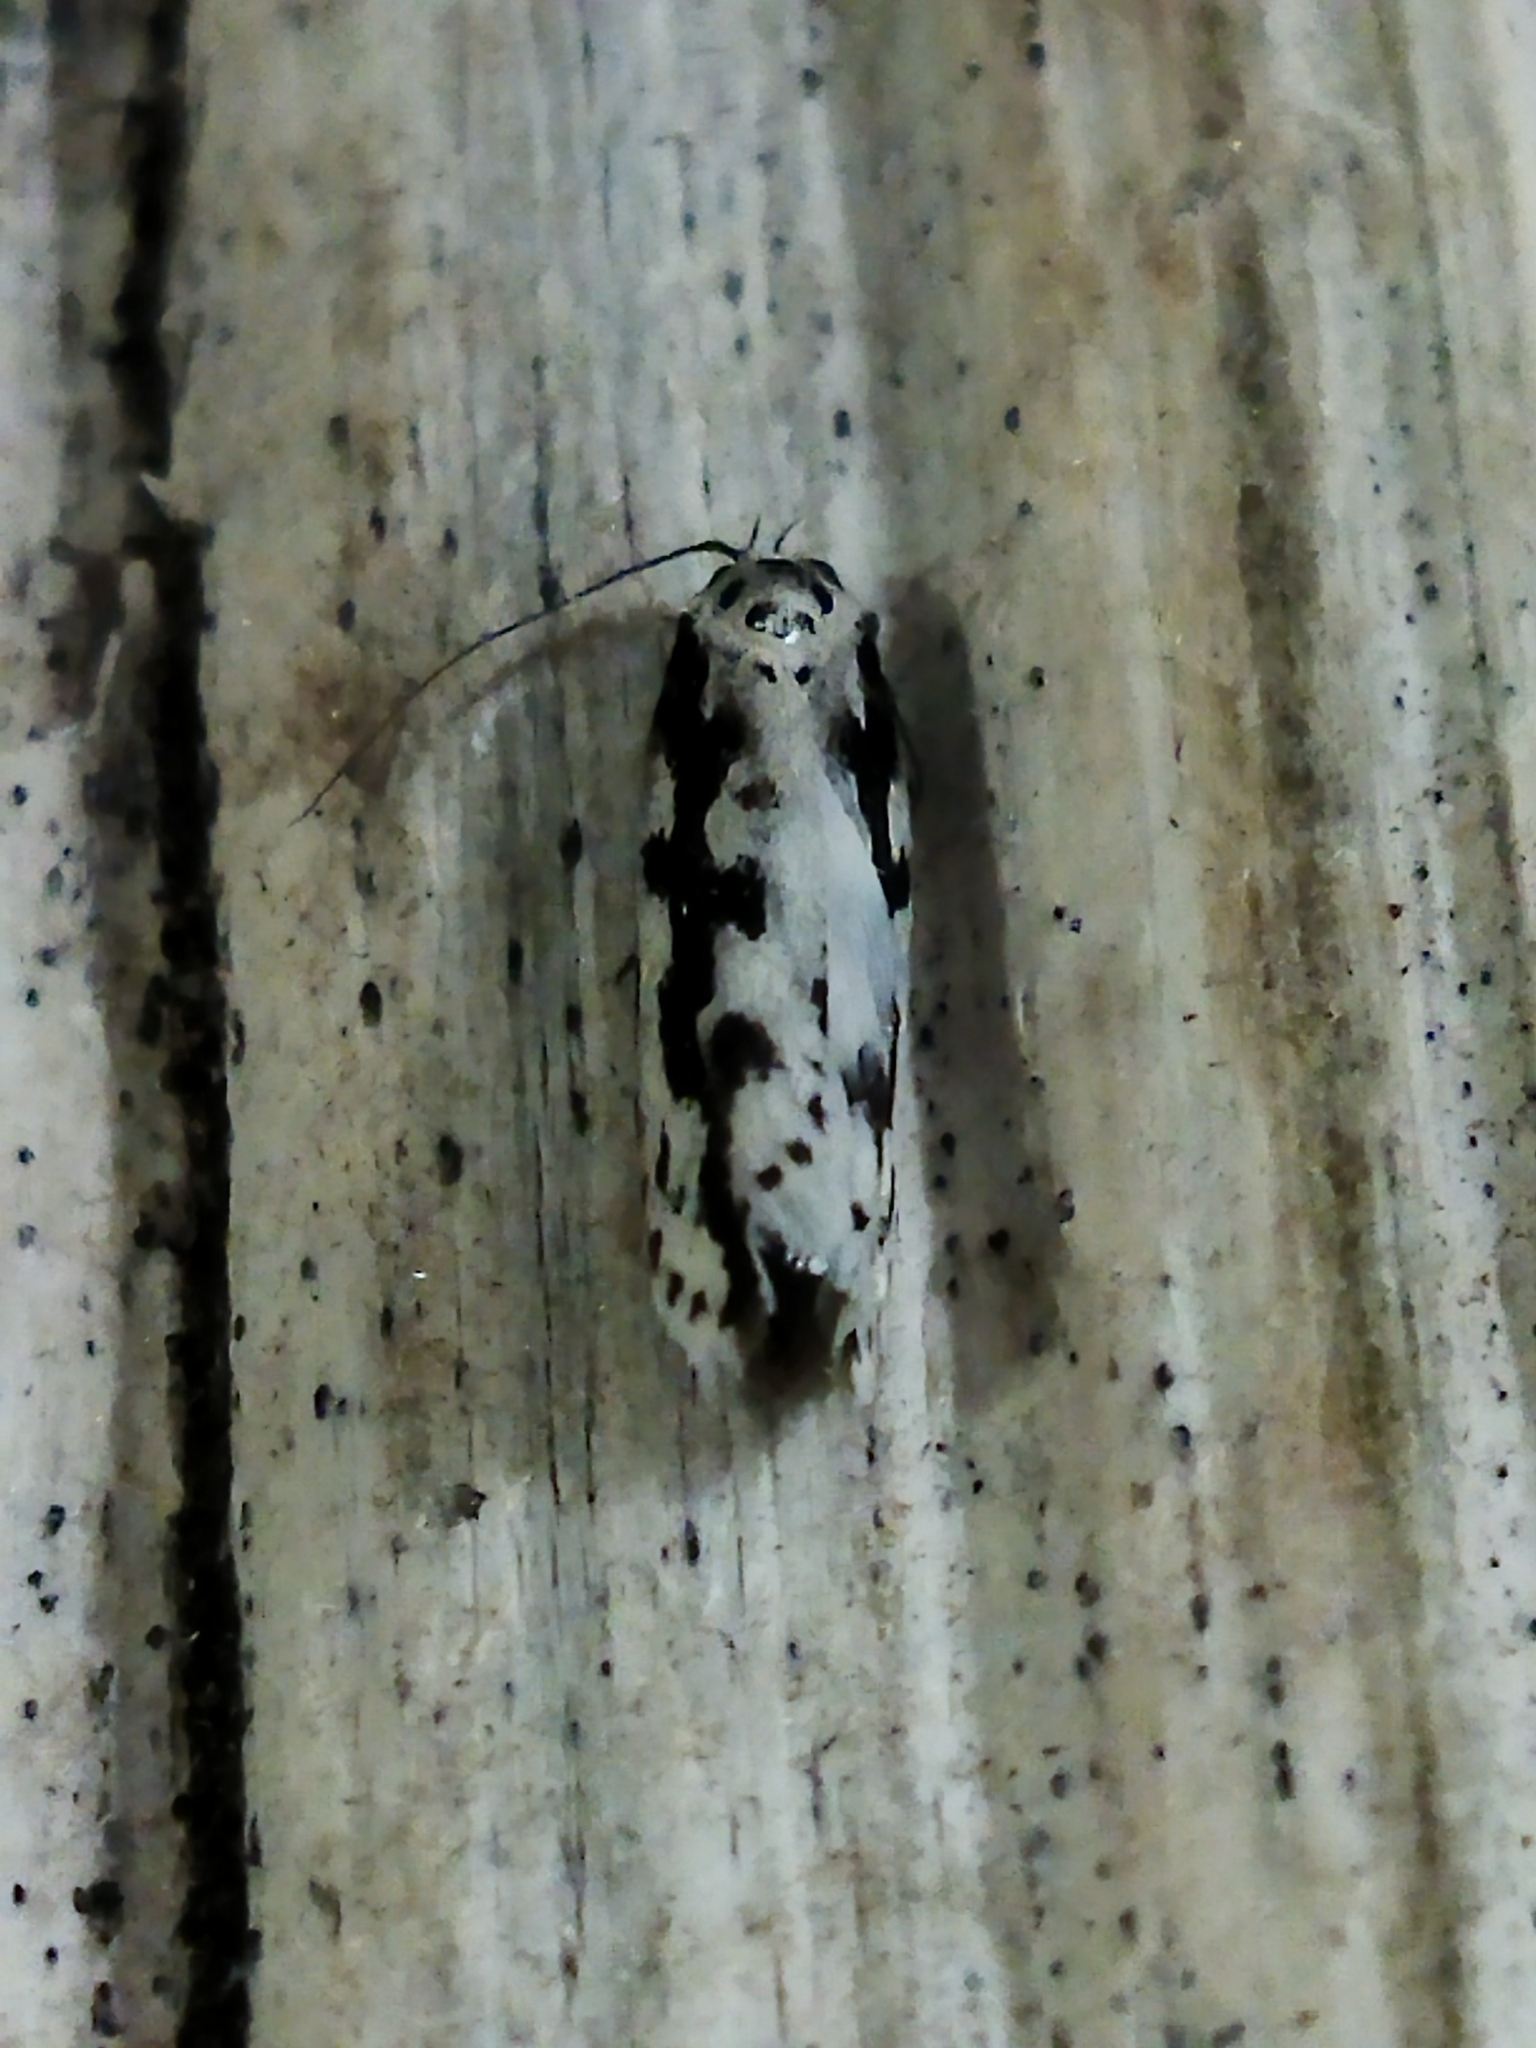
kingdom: Animalia
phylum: Arthropoda
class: Insecta
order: Lepidoptera
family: Ethmiidae
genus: Ethmia
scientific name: Ethmia fumidella
